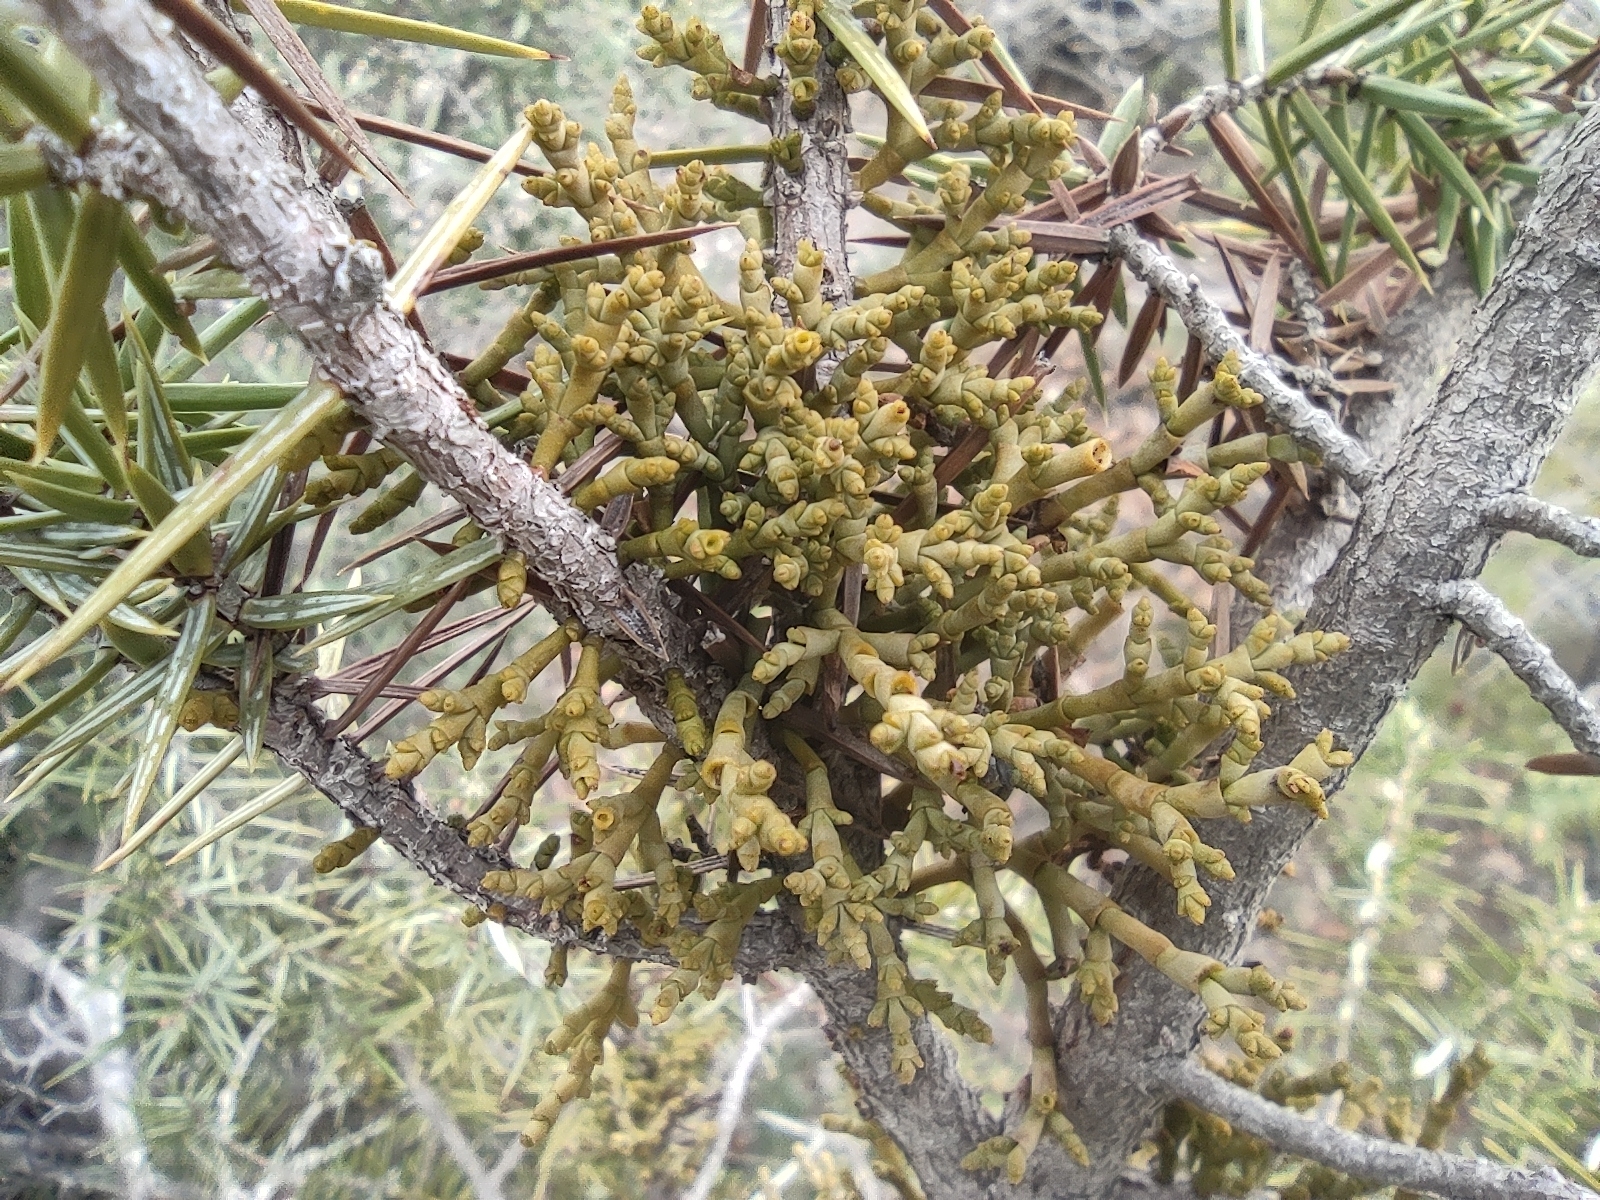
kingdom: Plantae
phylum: Tracheophyta
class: Magnoliopsida
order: Santalales
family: Viscaceae
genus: Arceuthobium
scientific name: Arceuthobium oxycedri
